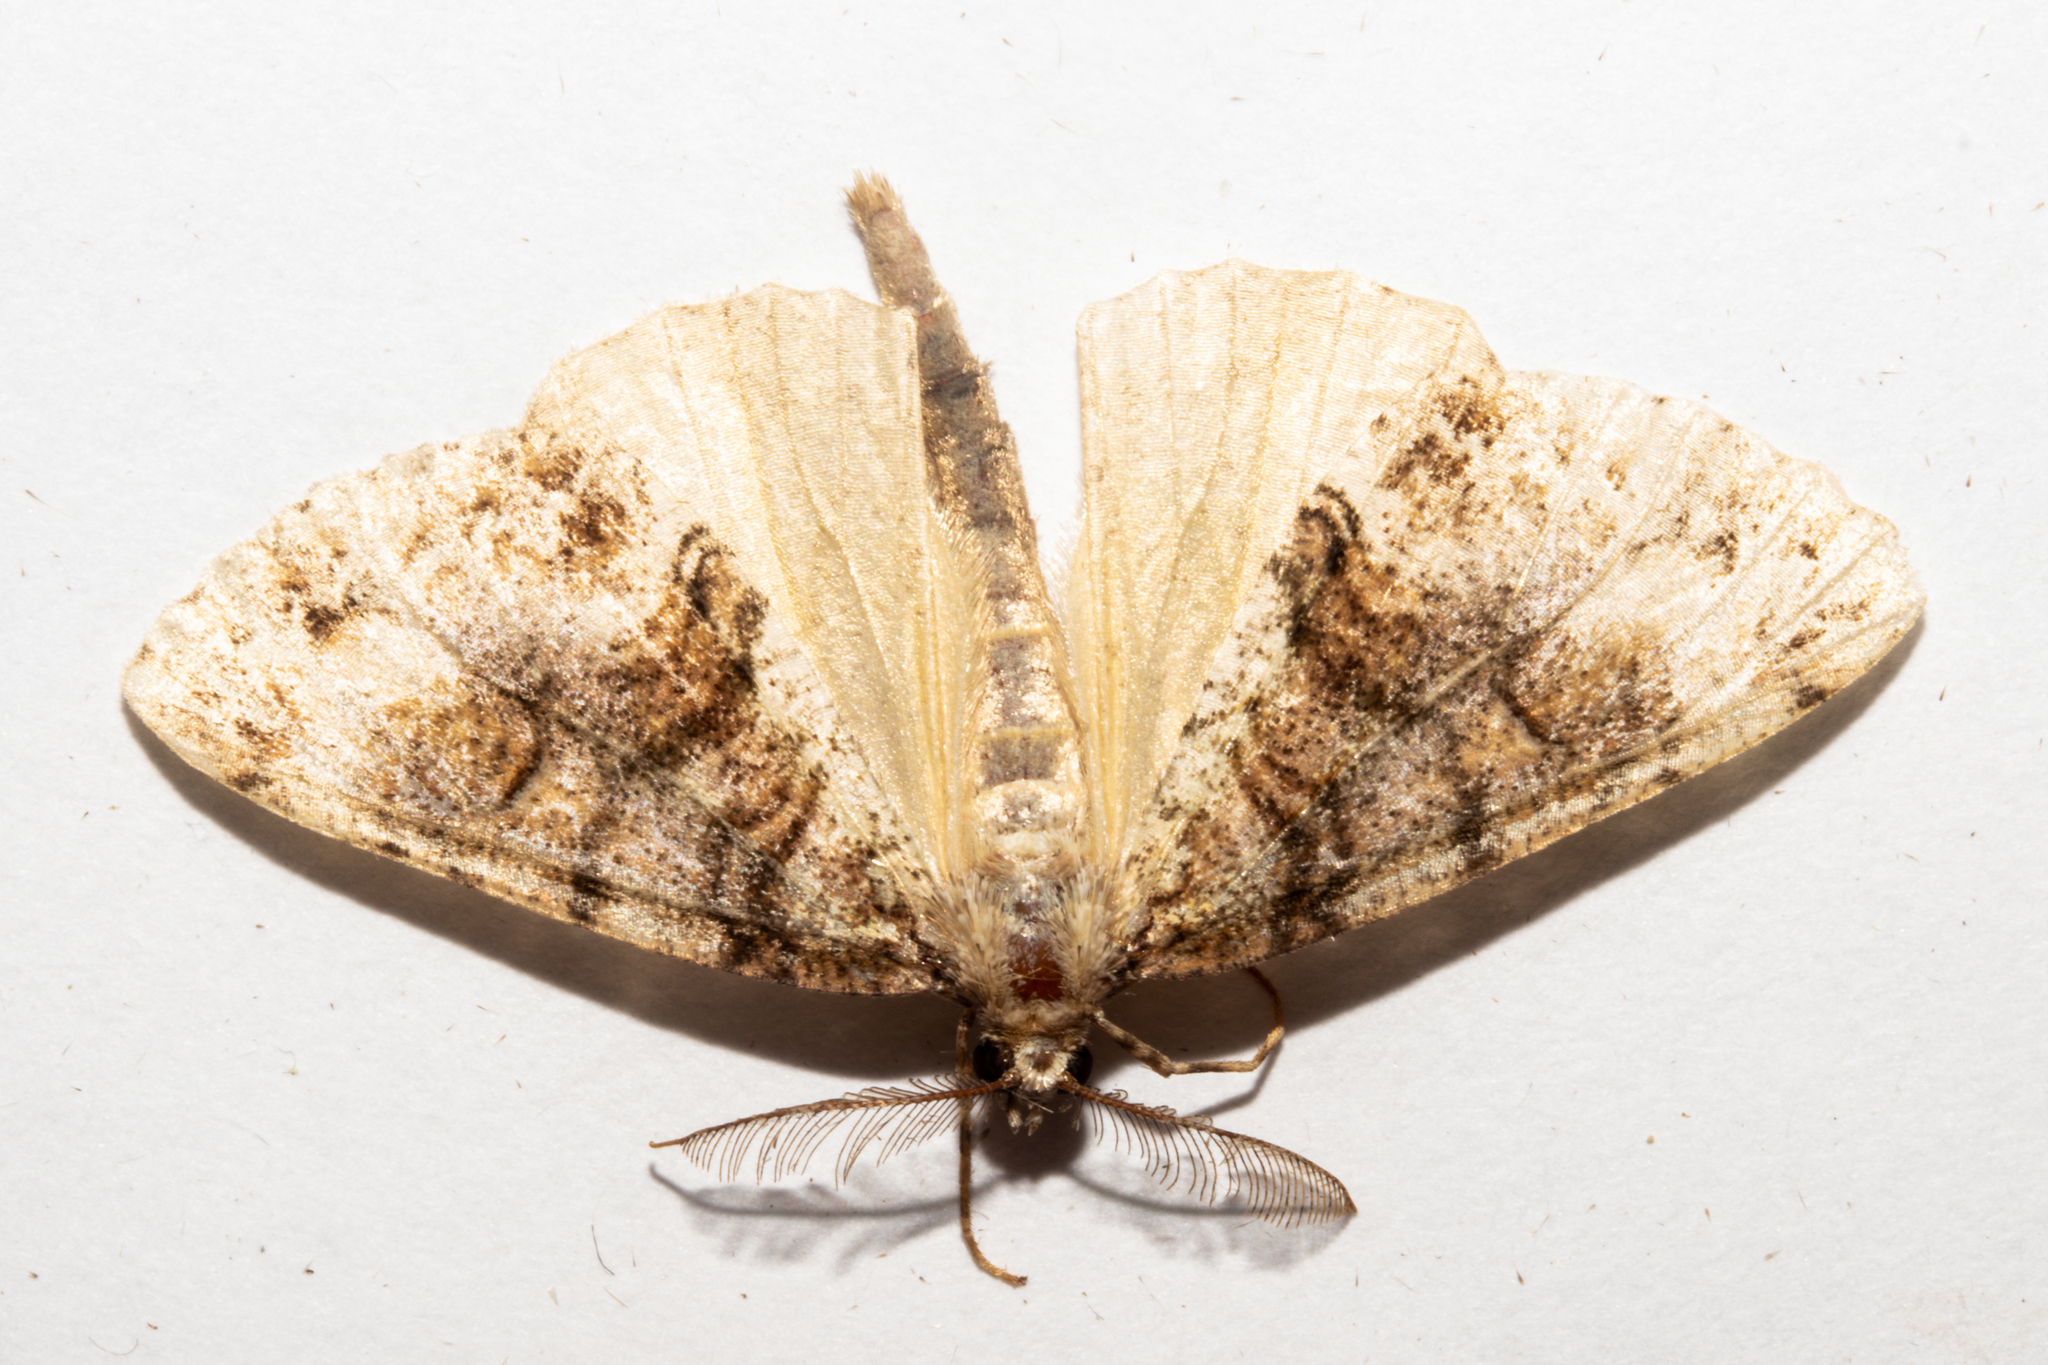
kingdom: Animalia
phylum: Arthropoda
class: Insecta
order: Lepidoptera
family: Geometridae
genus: Pseudocoremia
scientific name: Pseudocoremia suavis
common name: Common forest looper
